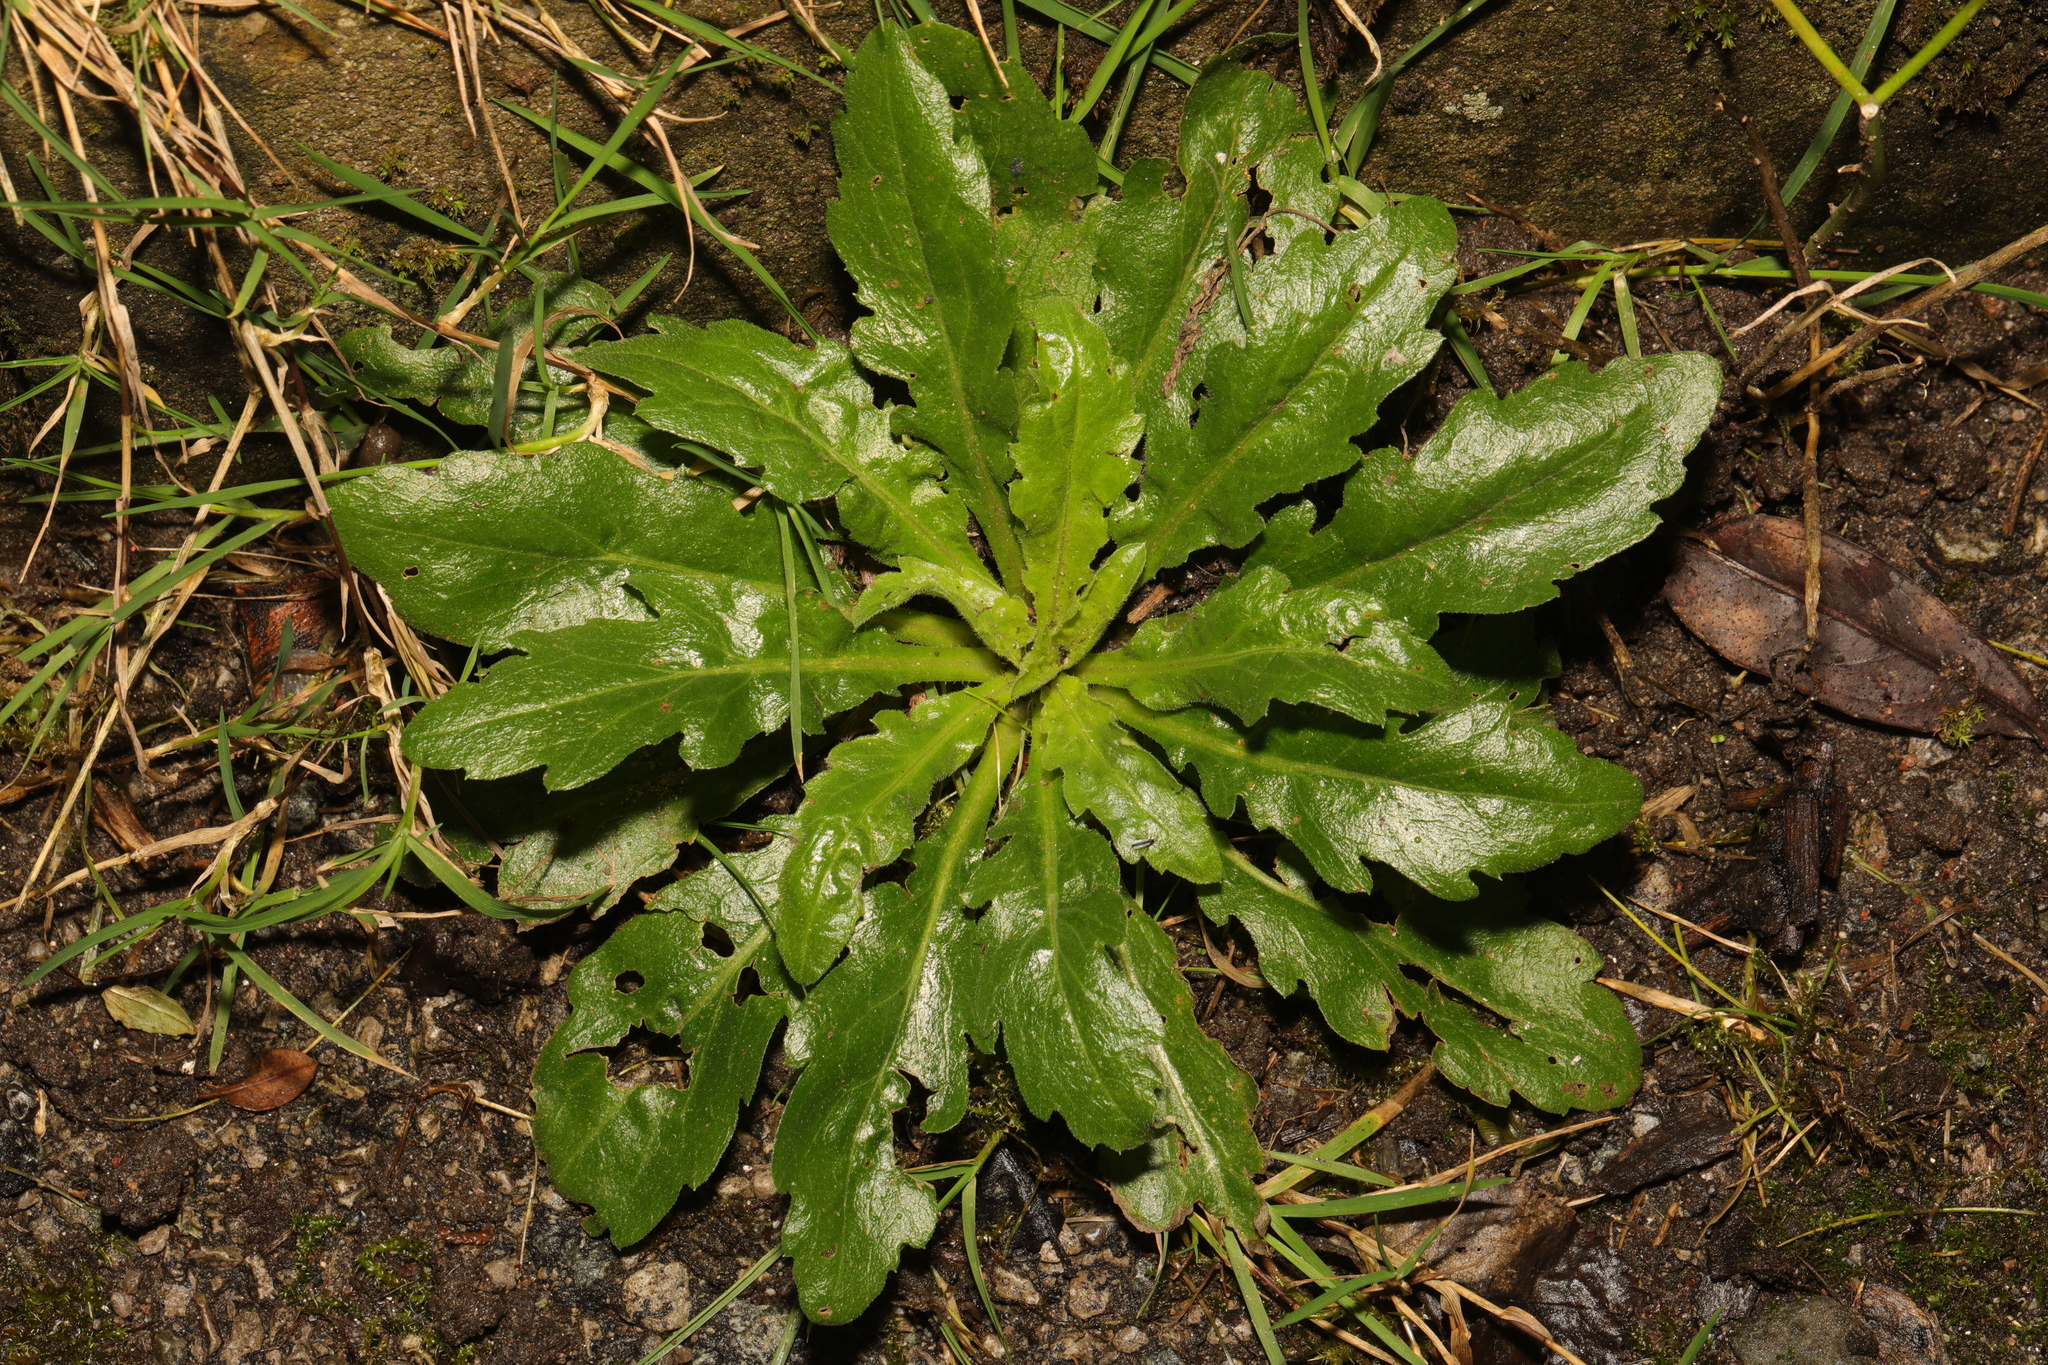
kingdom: Plantae
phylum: Tracheophyta
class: Magnoliopsida
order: Asterales
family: Asteraceae
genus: Hypochaeris
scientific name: Hypochaeris radicata
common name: Flatweed
